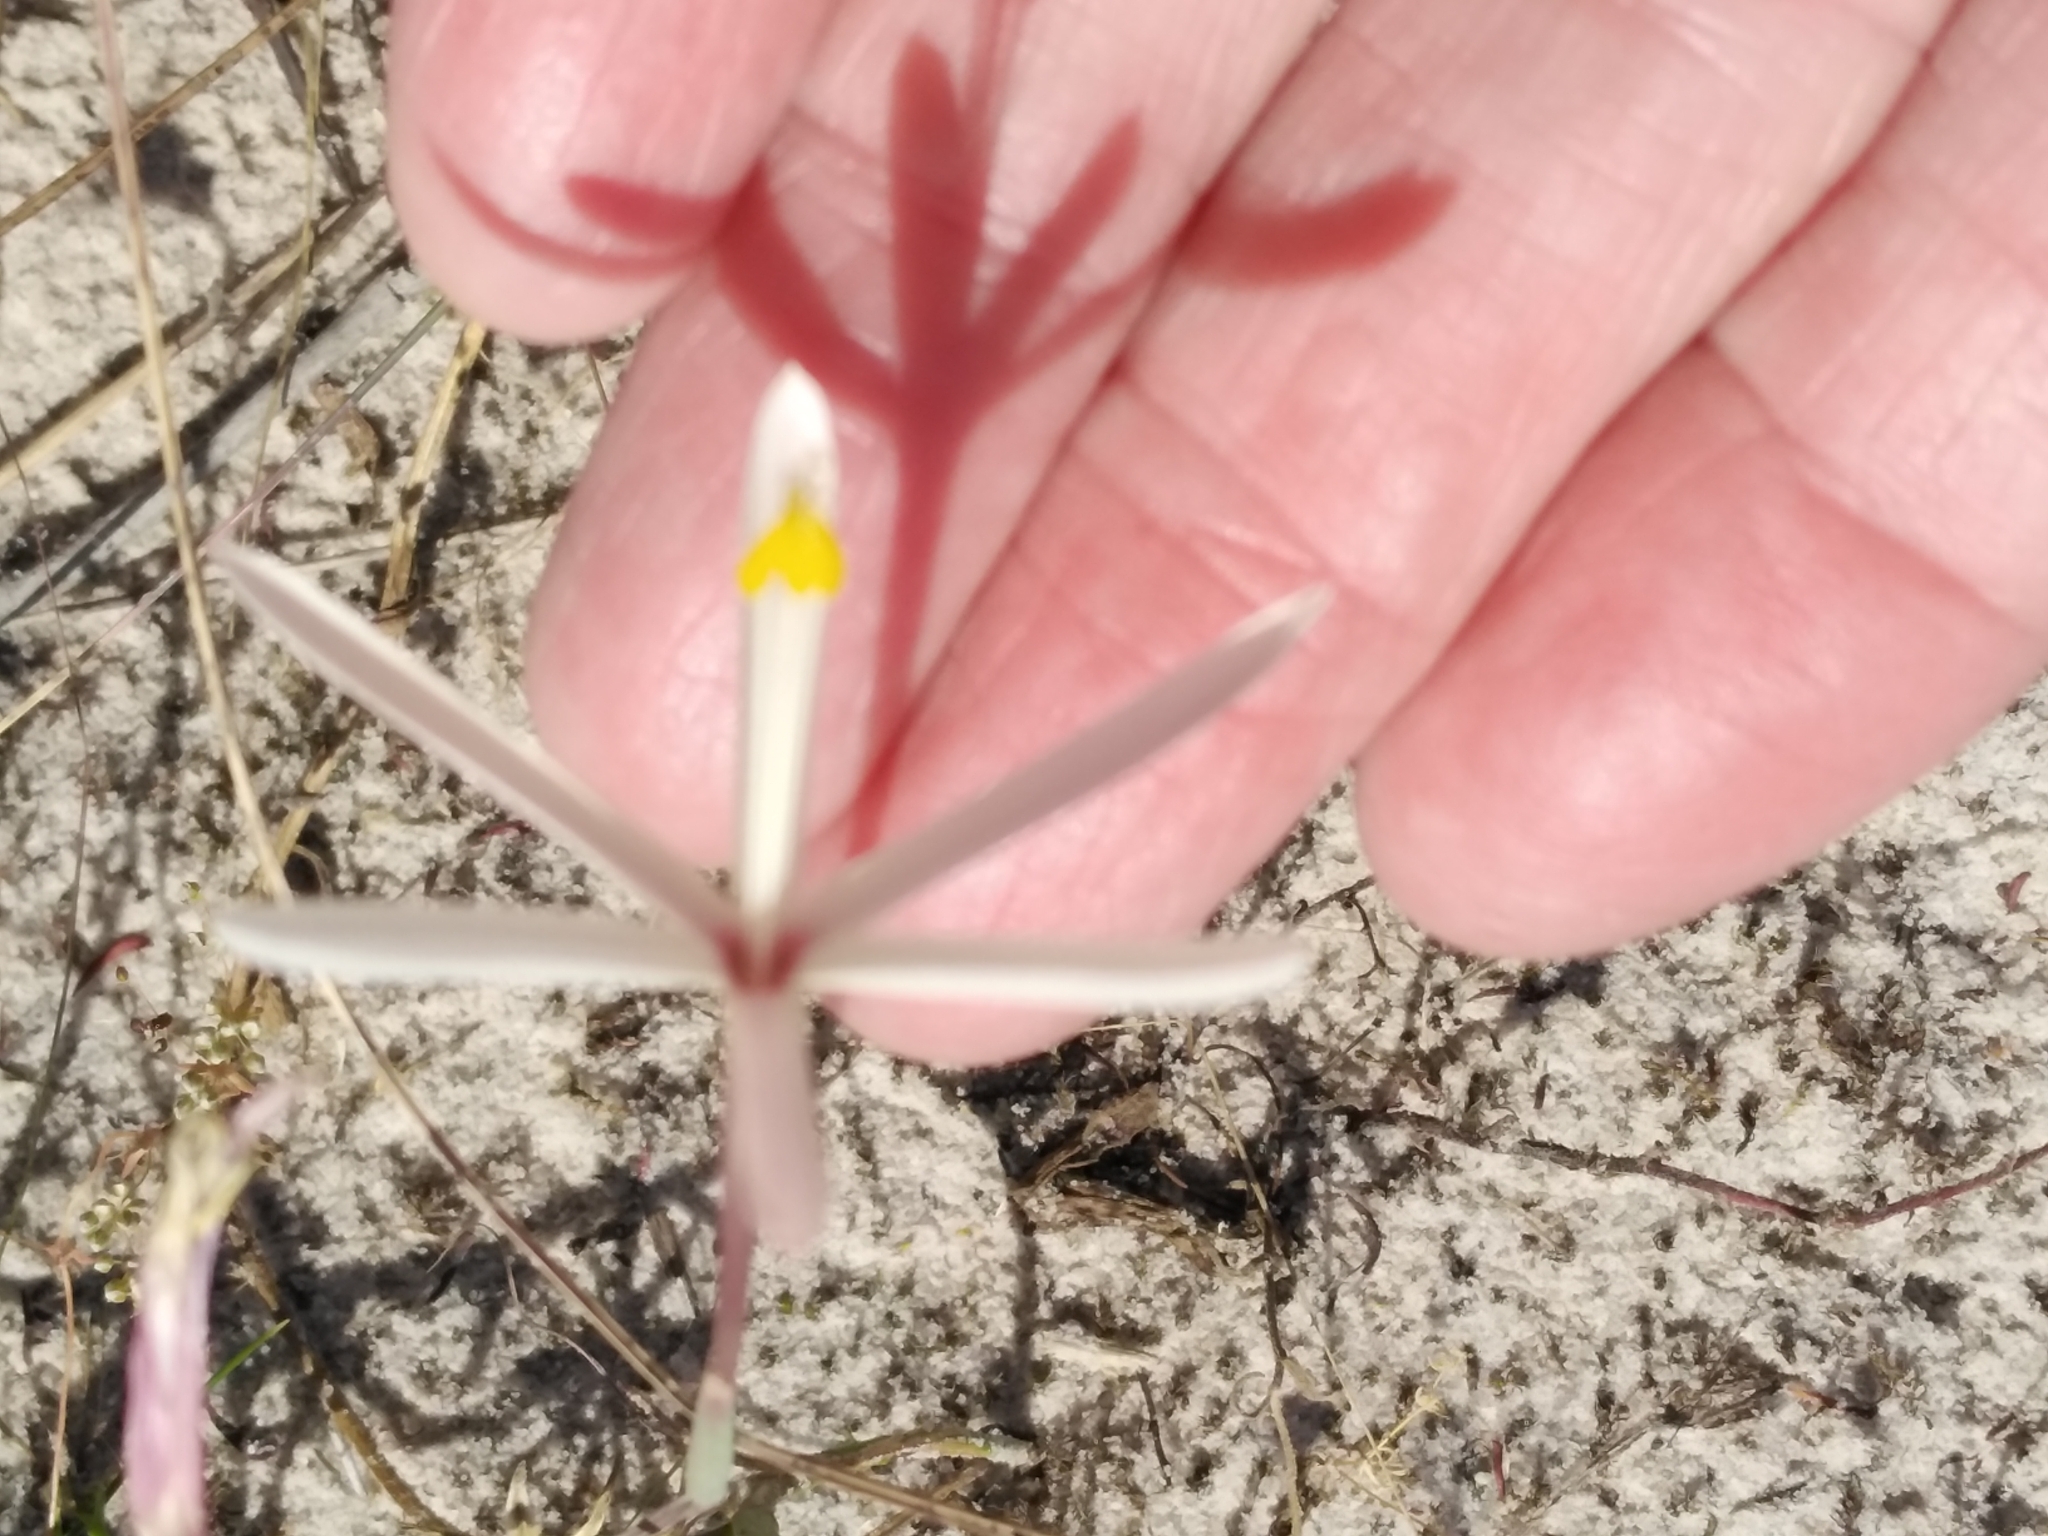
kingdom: Plantae
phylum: Tracheophyta
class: Liliopsida
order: Asparagales
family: Iridaceae
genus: Geissorhiza
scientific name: Geissorhiza tenella
